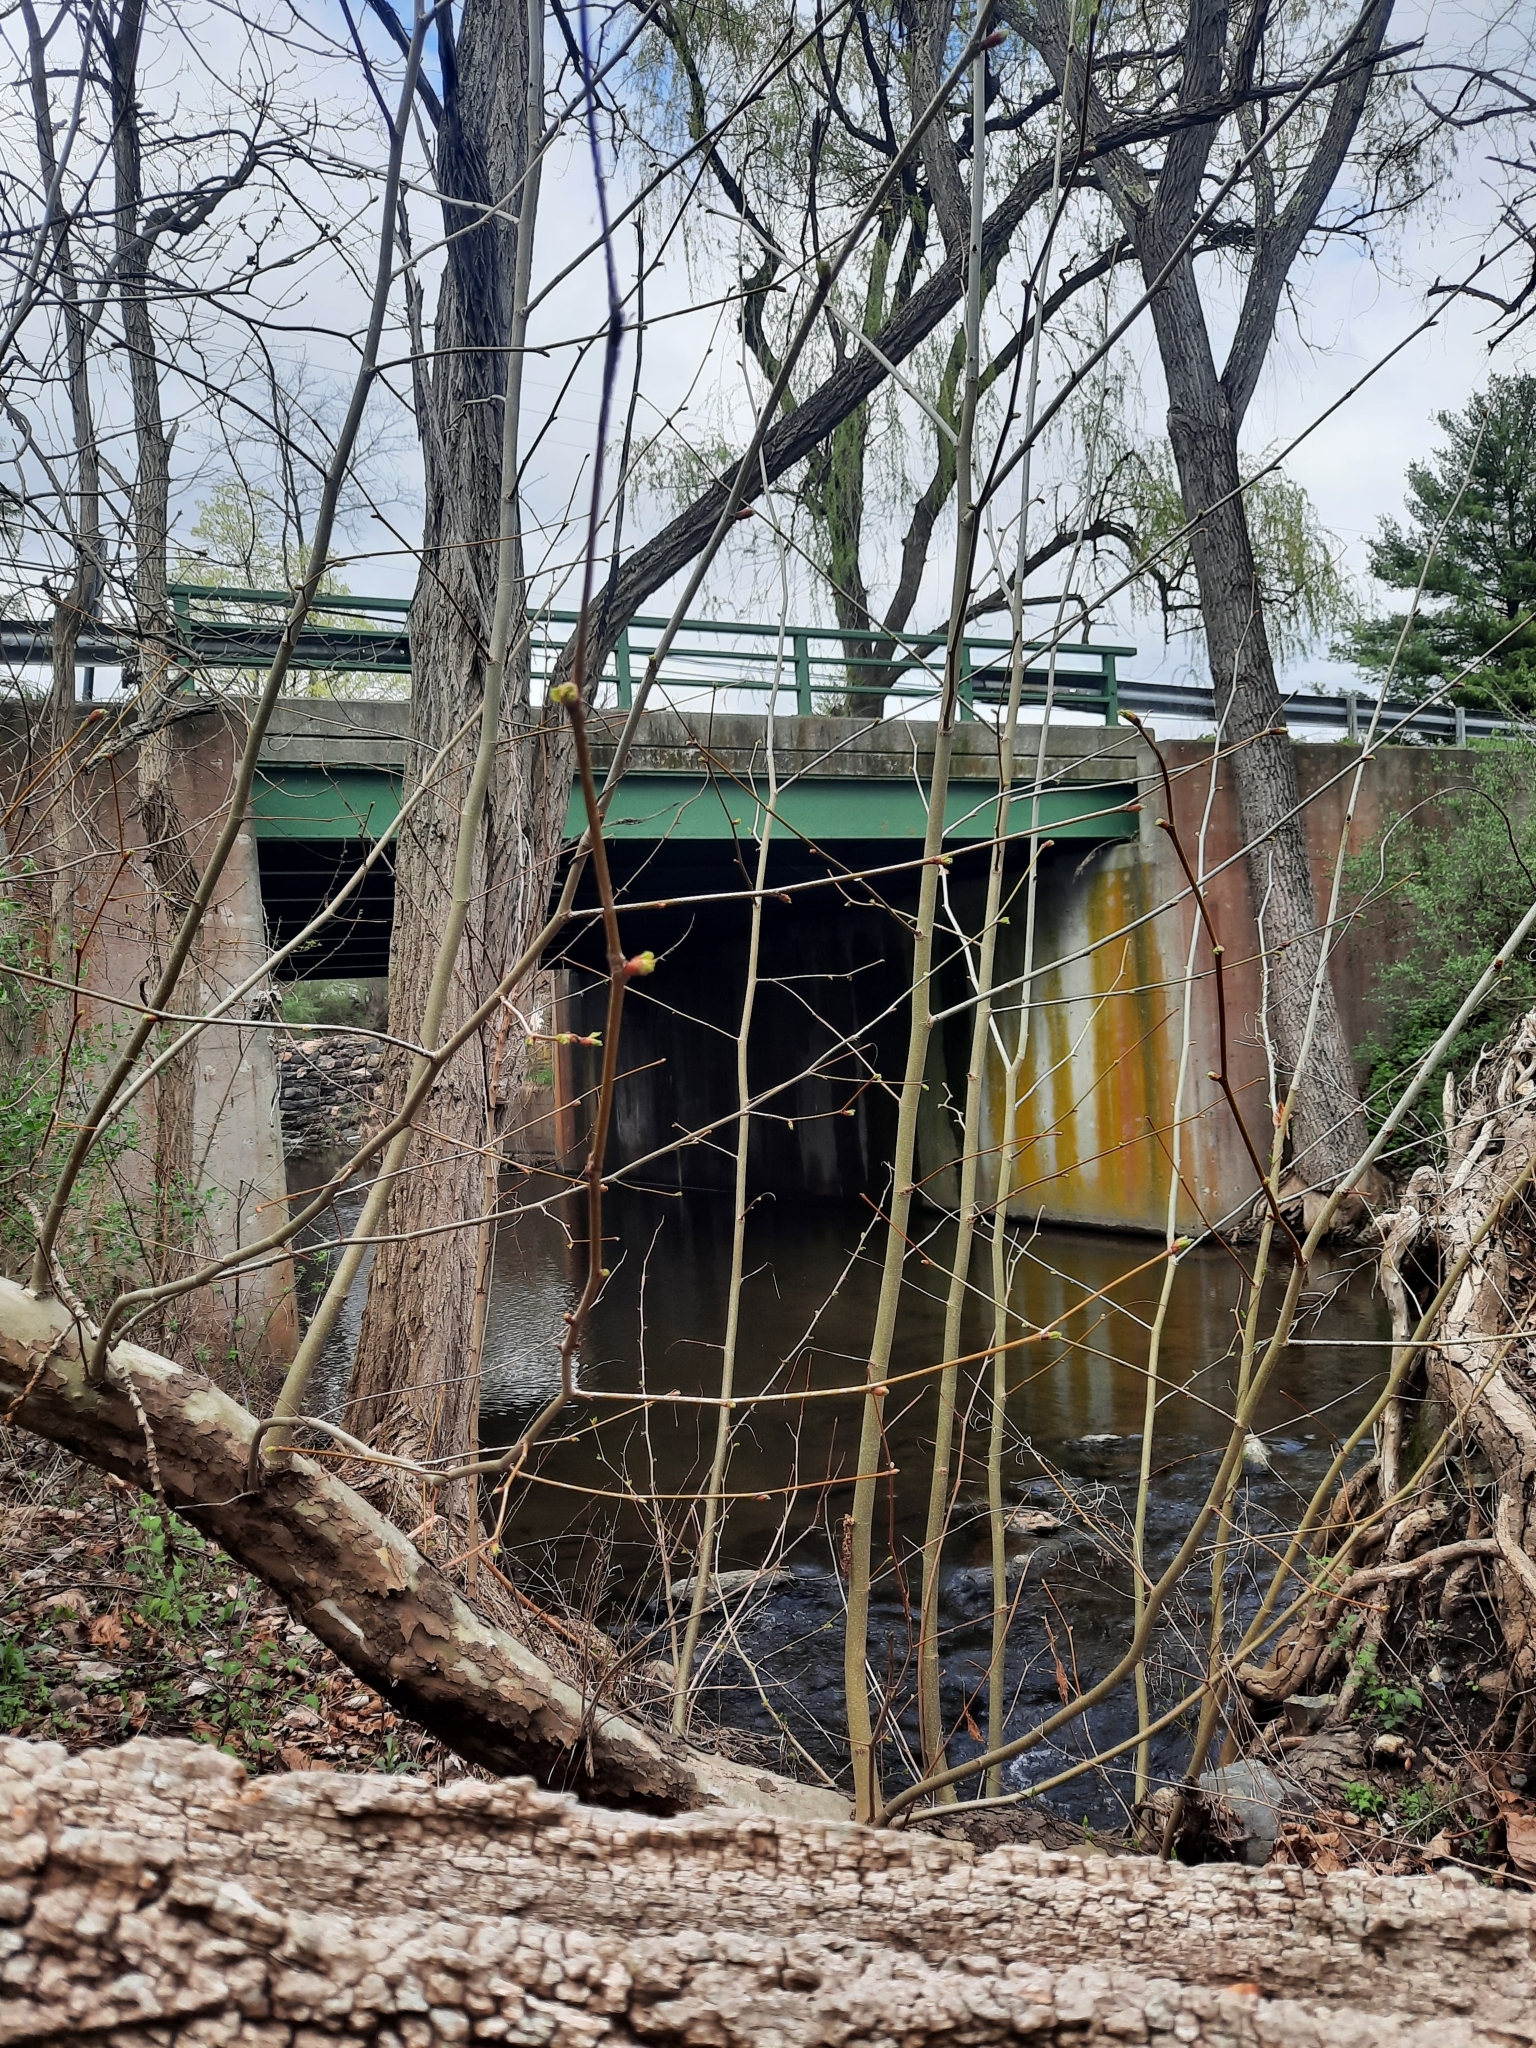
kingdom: Plantae
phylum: Tracheophyta
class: Magnoliopsida
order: Proteales
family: Platanaceae
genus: Platanus
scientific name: Platanus occidentalis
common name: American sycamore
